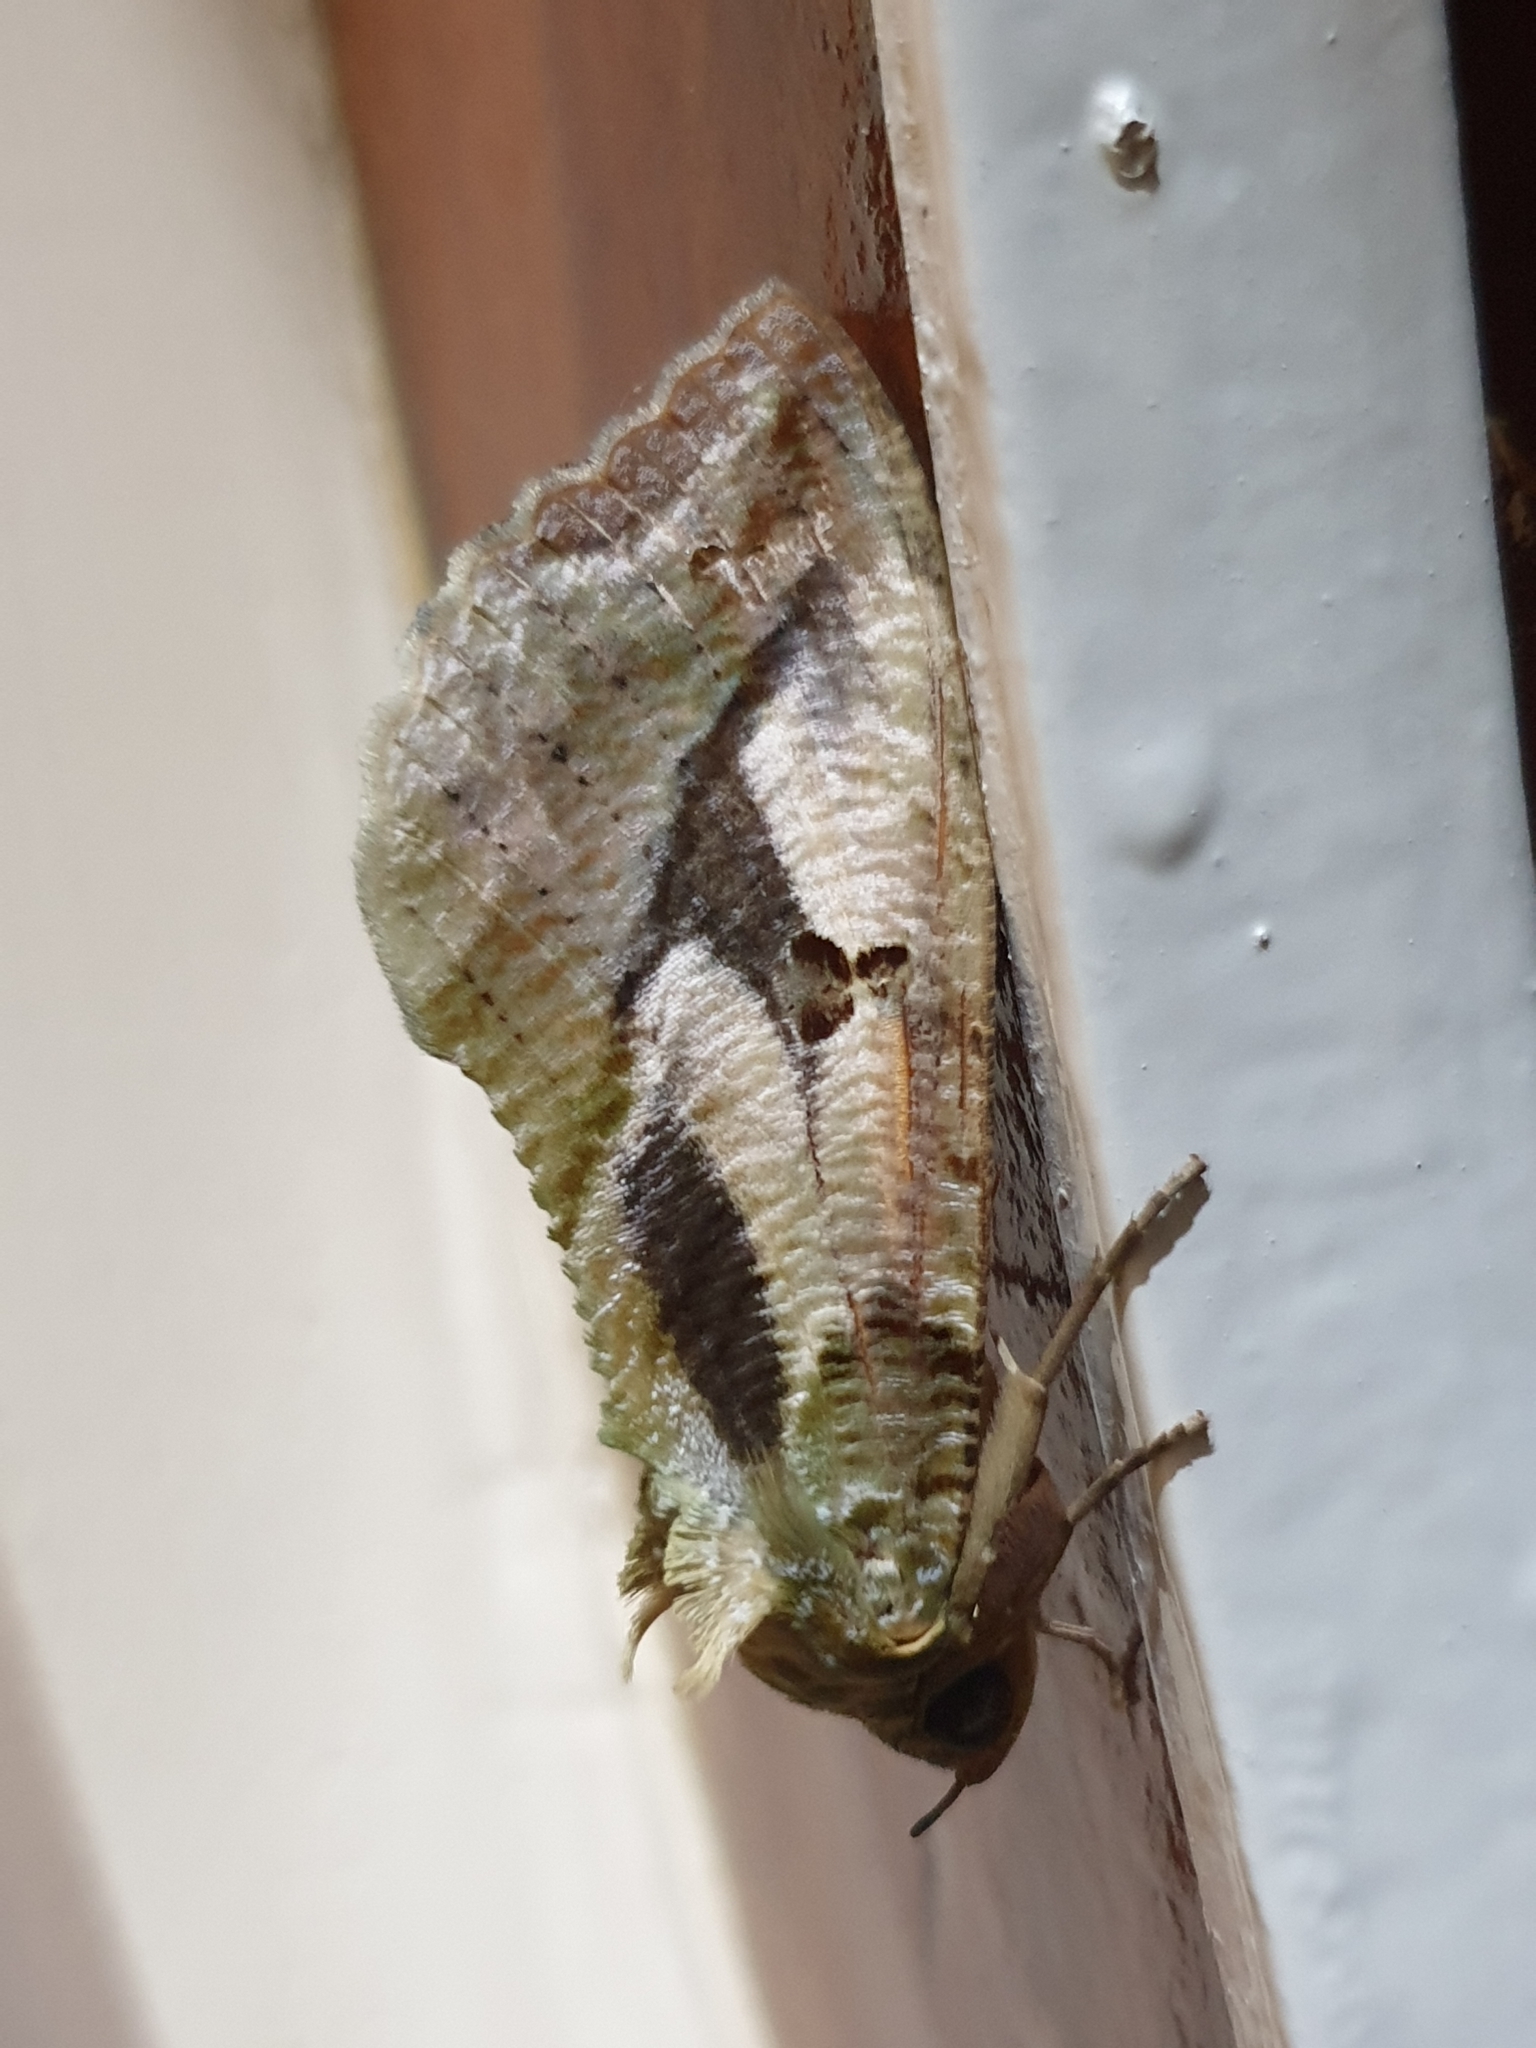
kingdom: Animalia
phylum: Arthropoda
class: Insecta
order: Lepidoptera
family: Erebidae
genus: Eudocima
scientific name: Eudocima materna
